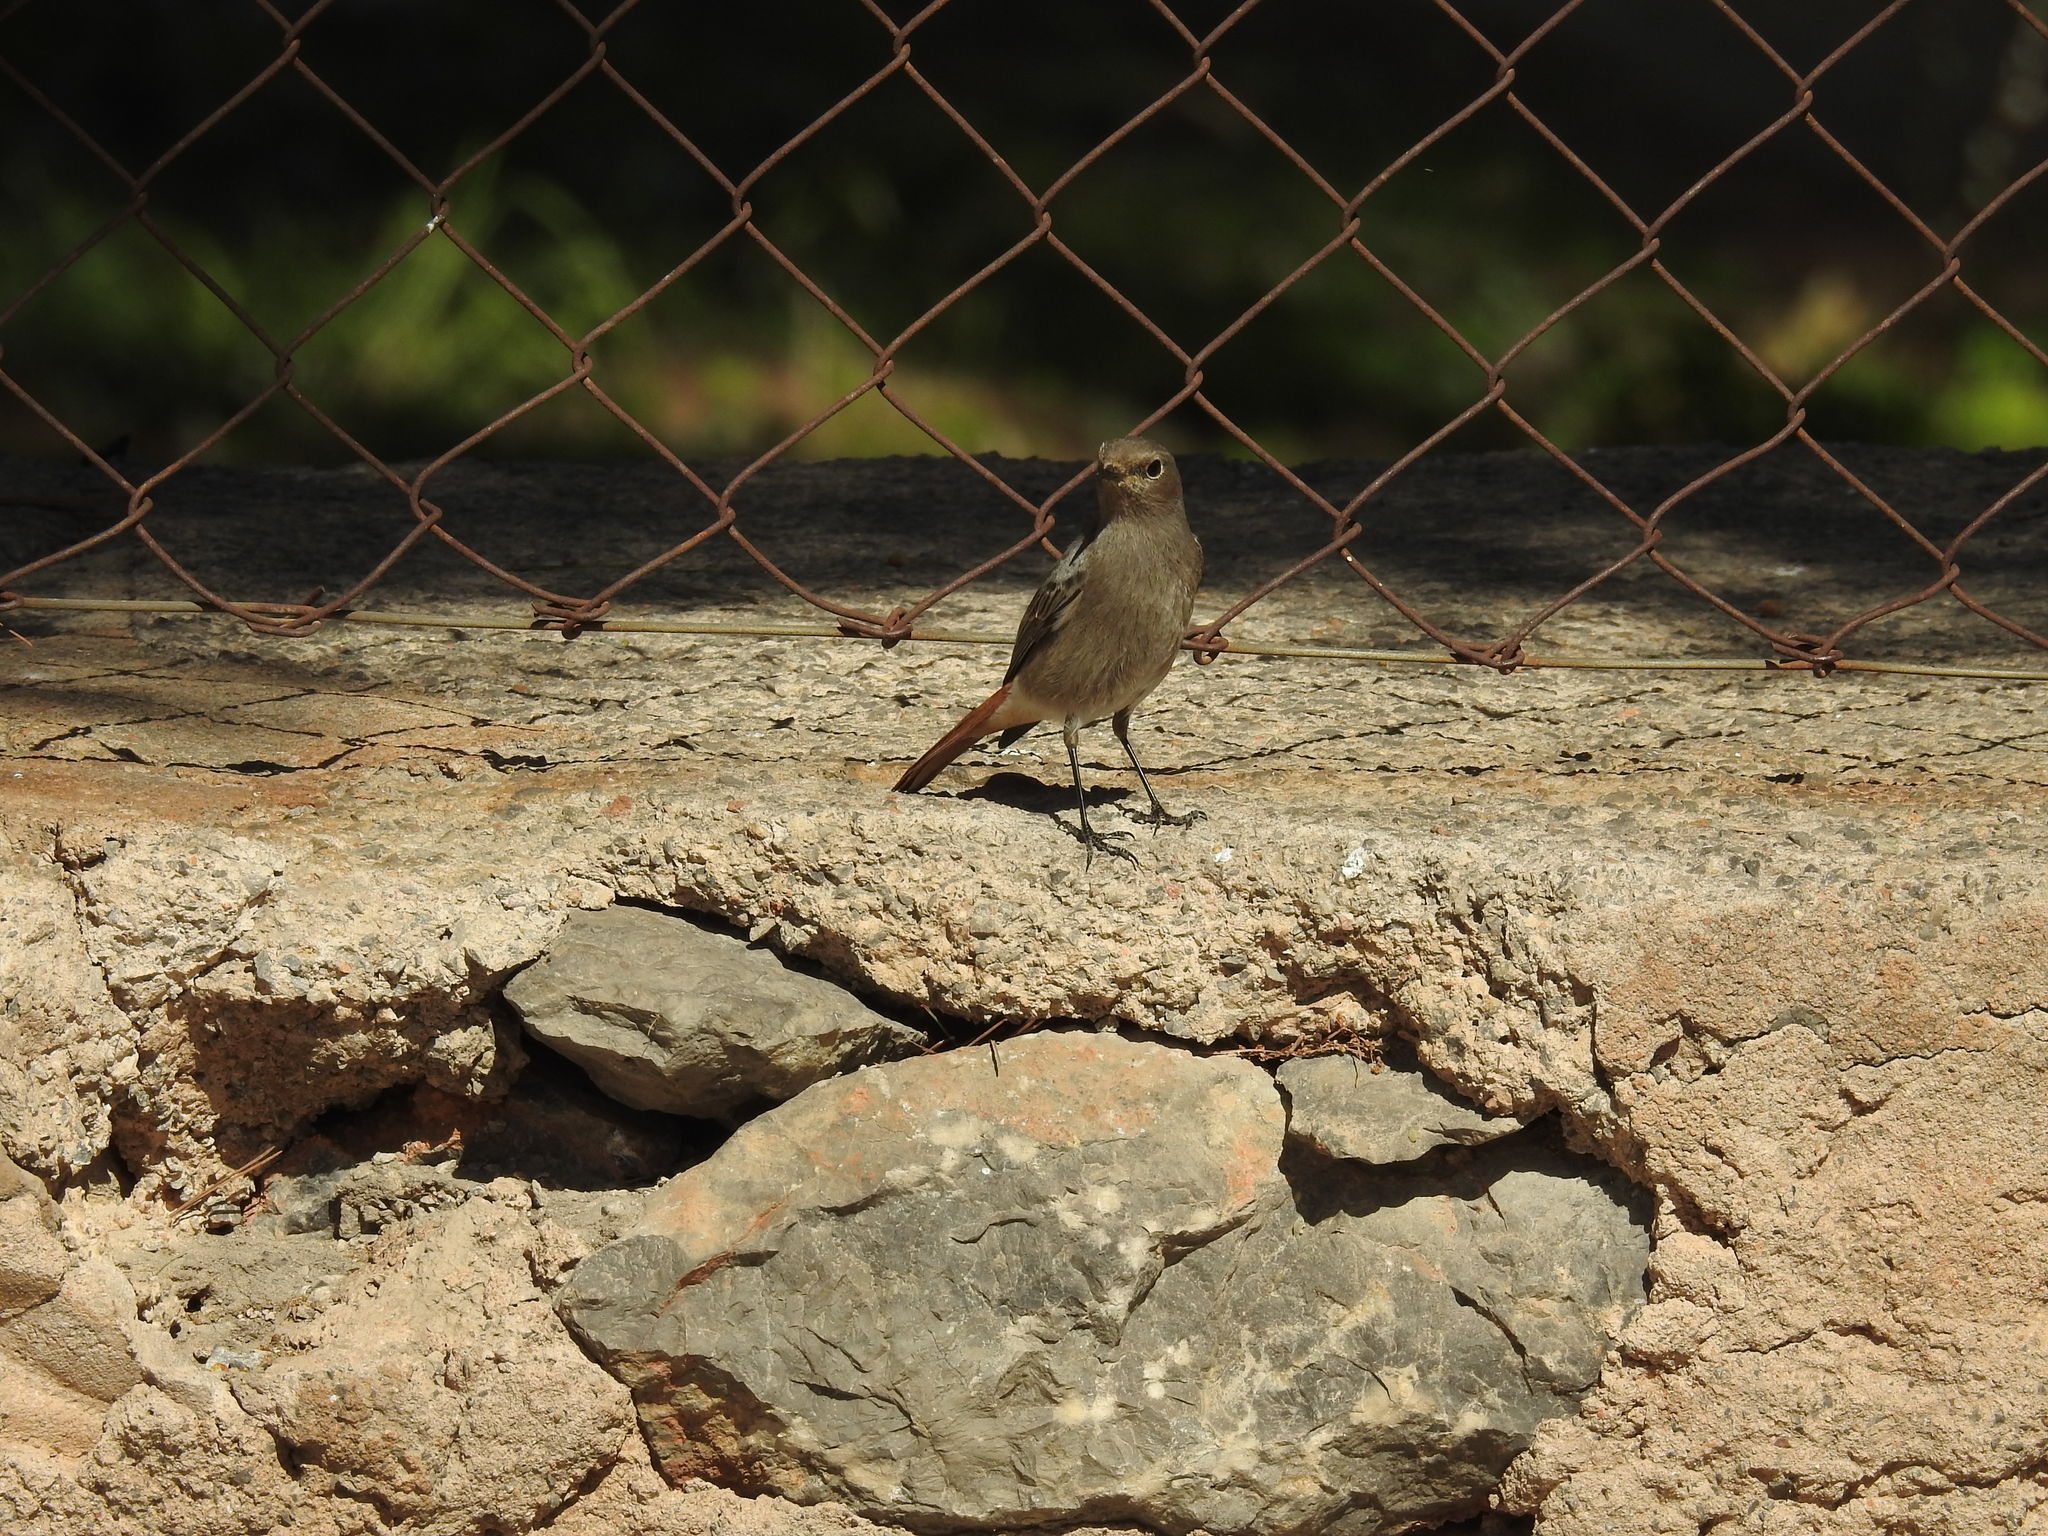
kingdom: Animalia
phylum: Chordata
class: Aves
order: Passeriformes
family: Muscicapidae
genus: Phoenicurus
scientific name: Phoenicurus ochruros
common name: Black redstart
